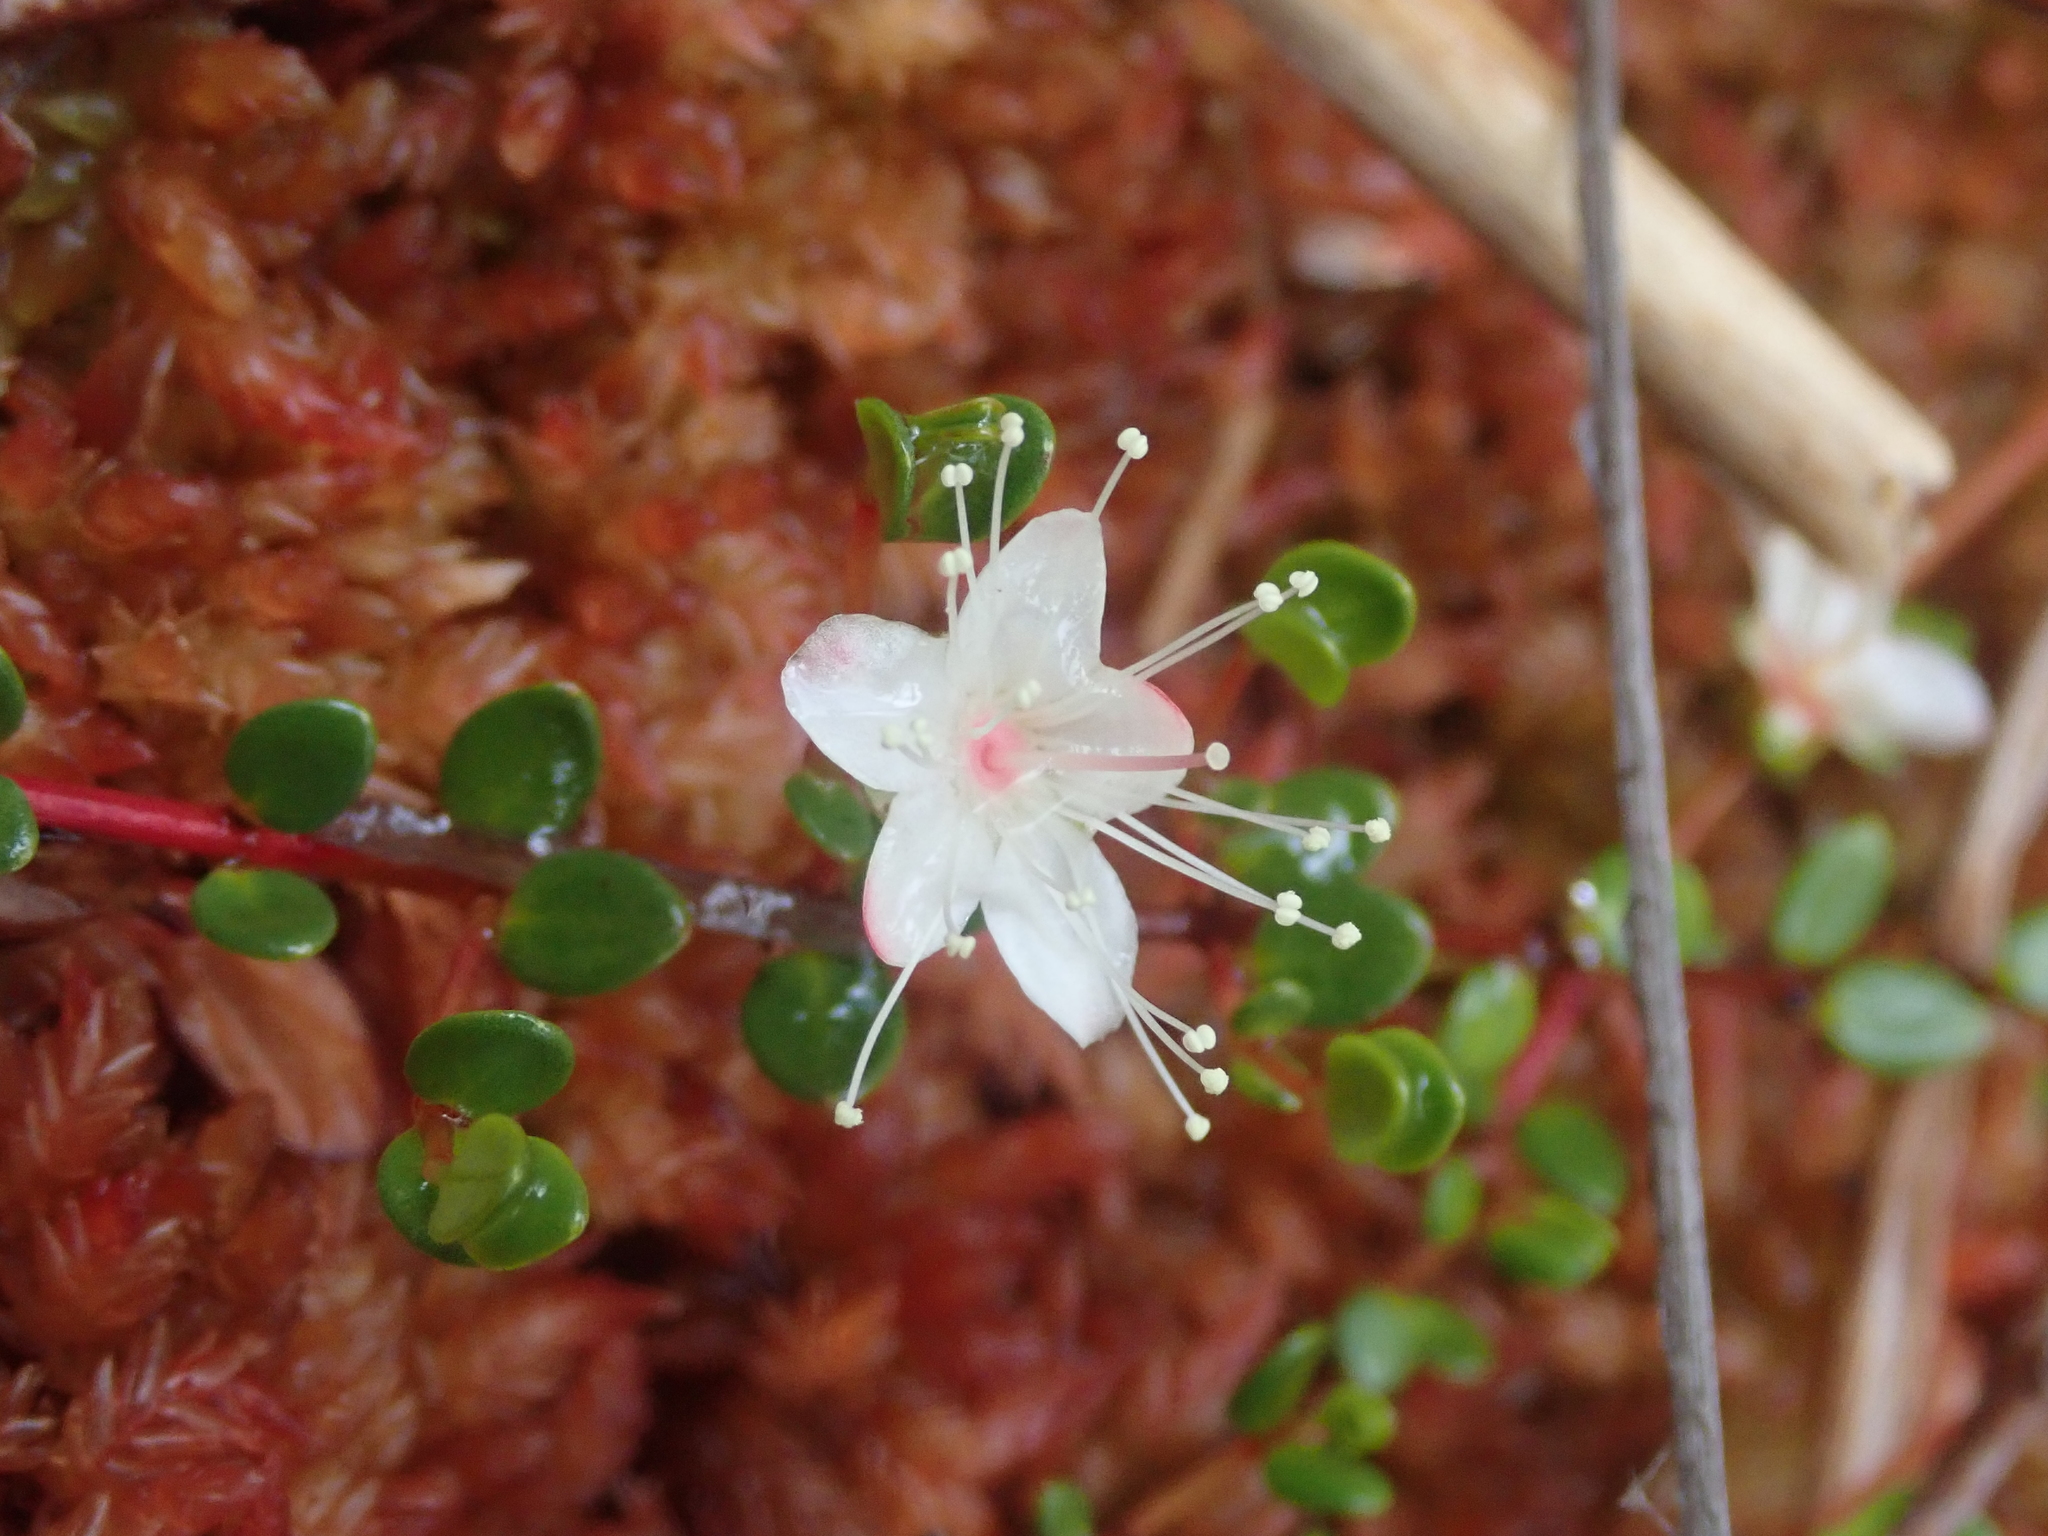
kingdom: Plantae
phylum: Tracheophyta
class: Magnoliopsida
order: Myrtales
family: Myrtaceae
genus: Myrteola
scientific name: Myrteola nummularia
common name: Cranberry-myrtle
